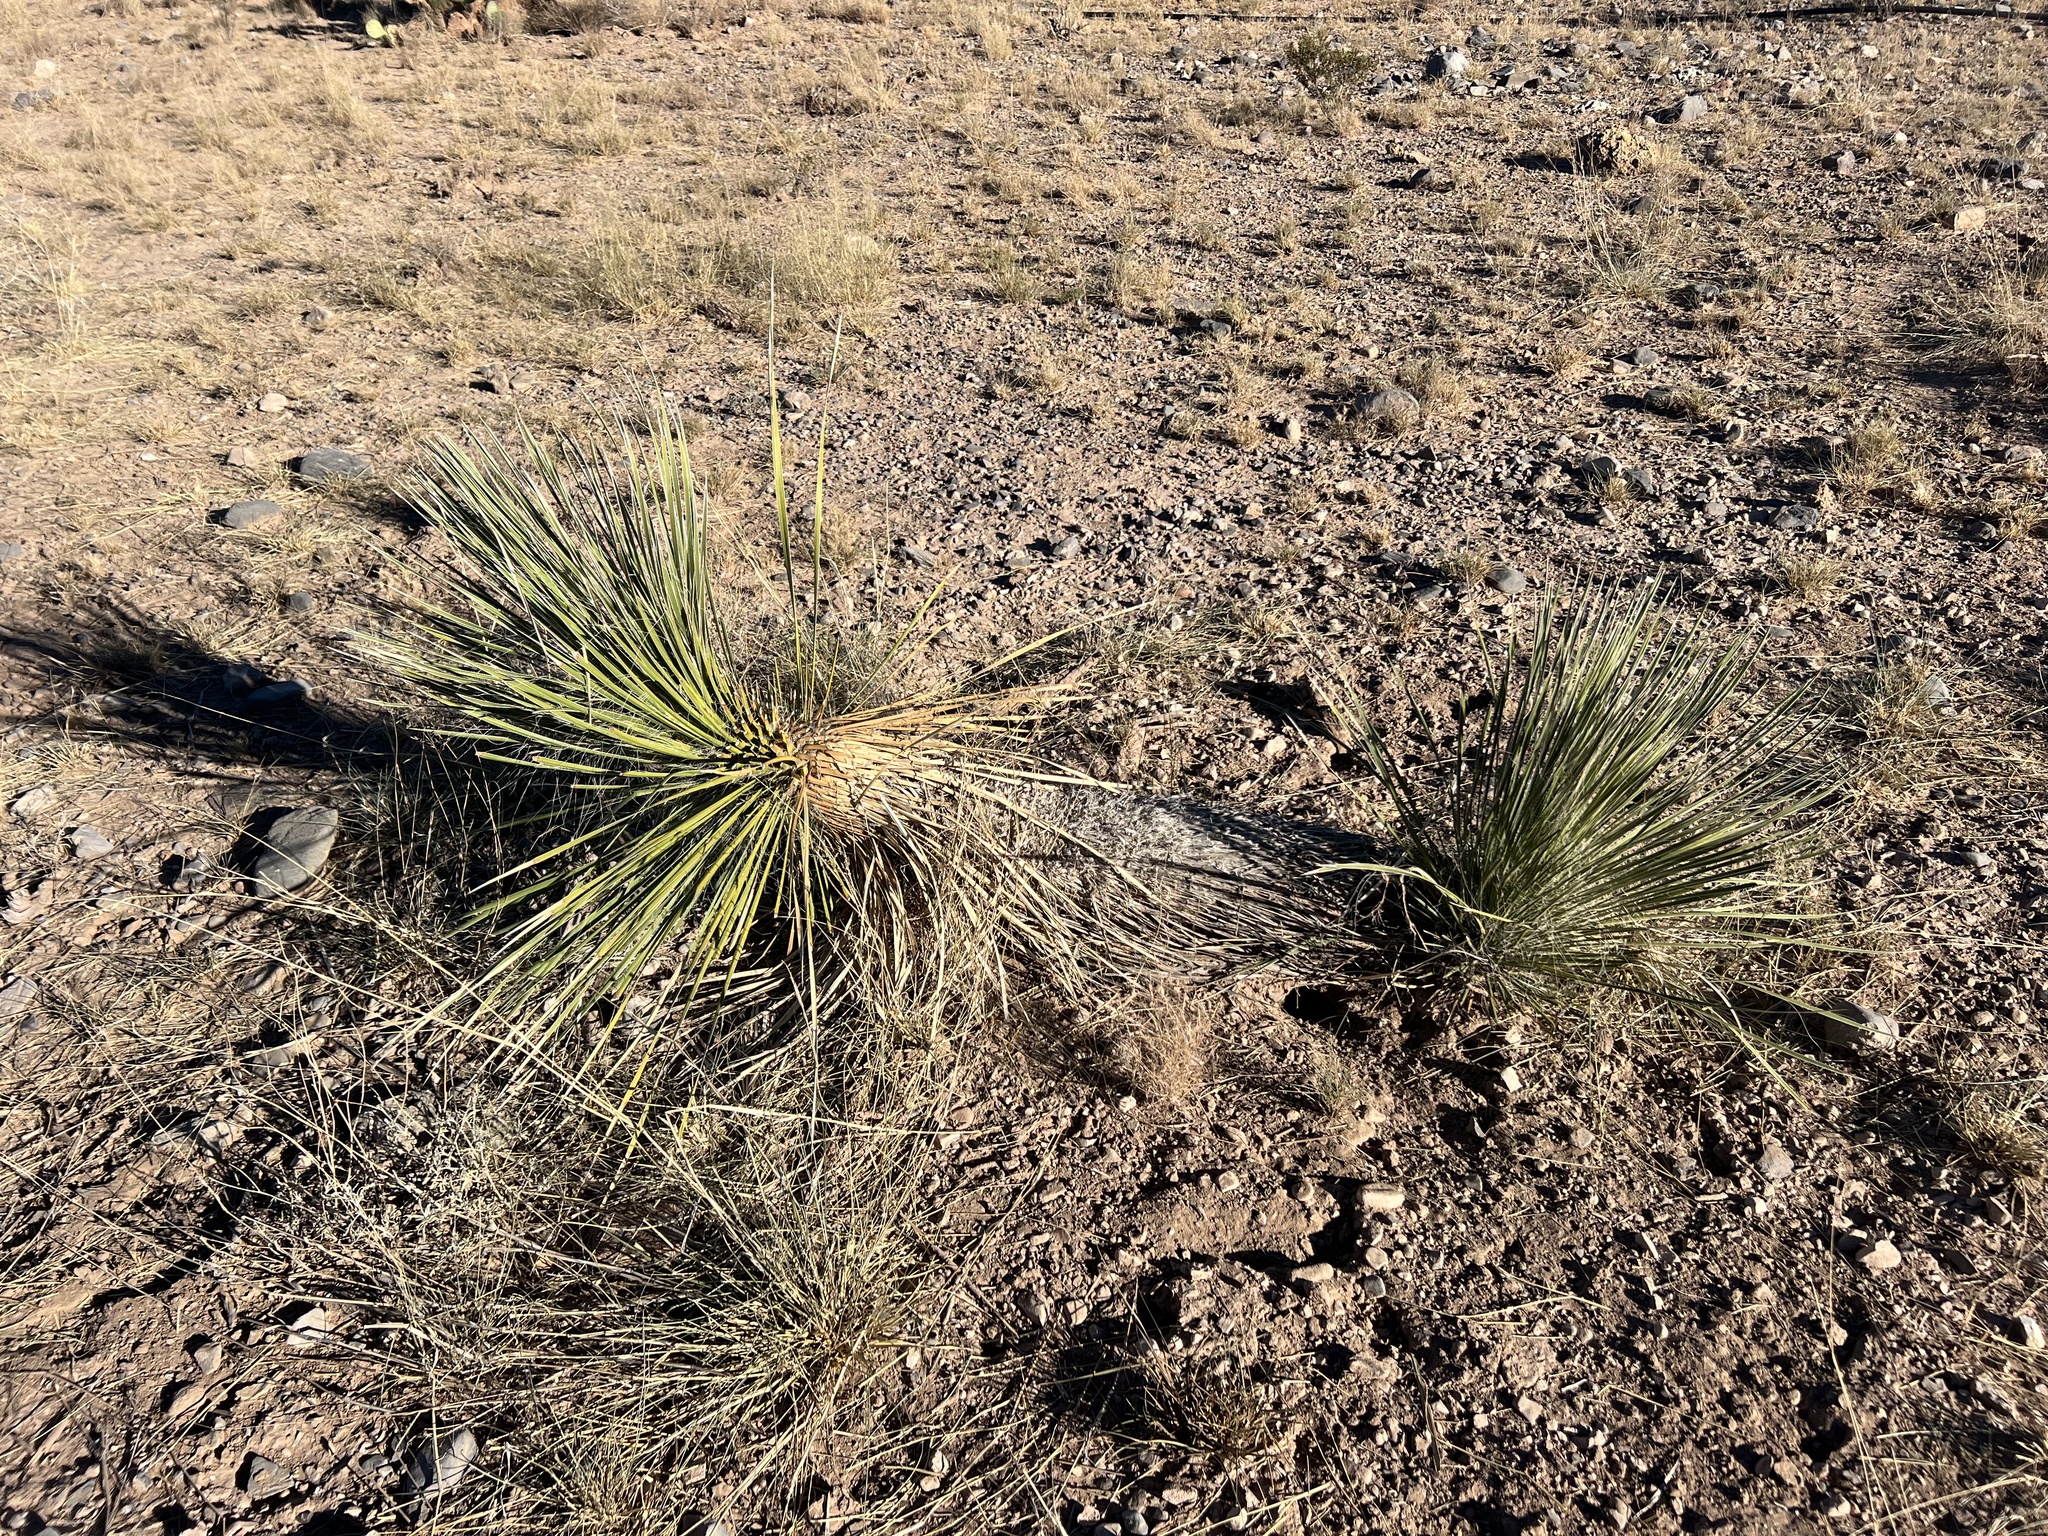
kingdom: Plantae
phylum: Tracheophyta
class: Liliopsida
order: Asparagales
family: Asparagaceae
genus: Yucca
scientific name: Yucca elata
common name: Palmella
